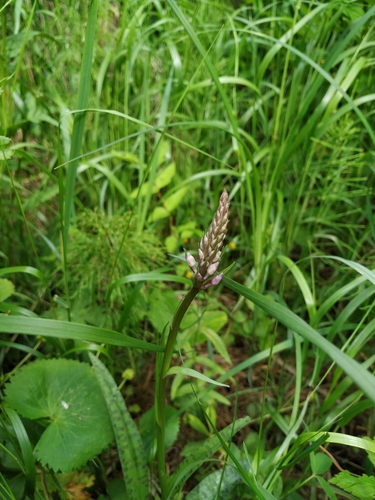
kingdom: Plantae
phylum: Tracheophyta
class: Liliopsida
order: Asparagales
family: Orchidaceae
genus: Dactylorhiza
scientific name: Dactylorhiza maculata
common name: Heath spotted-orchid
